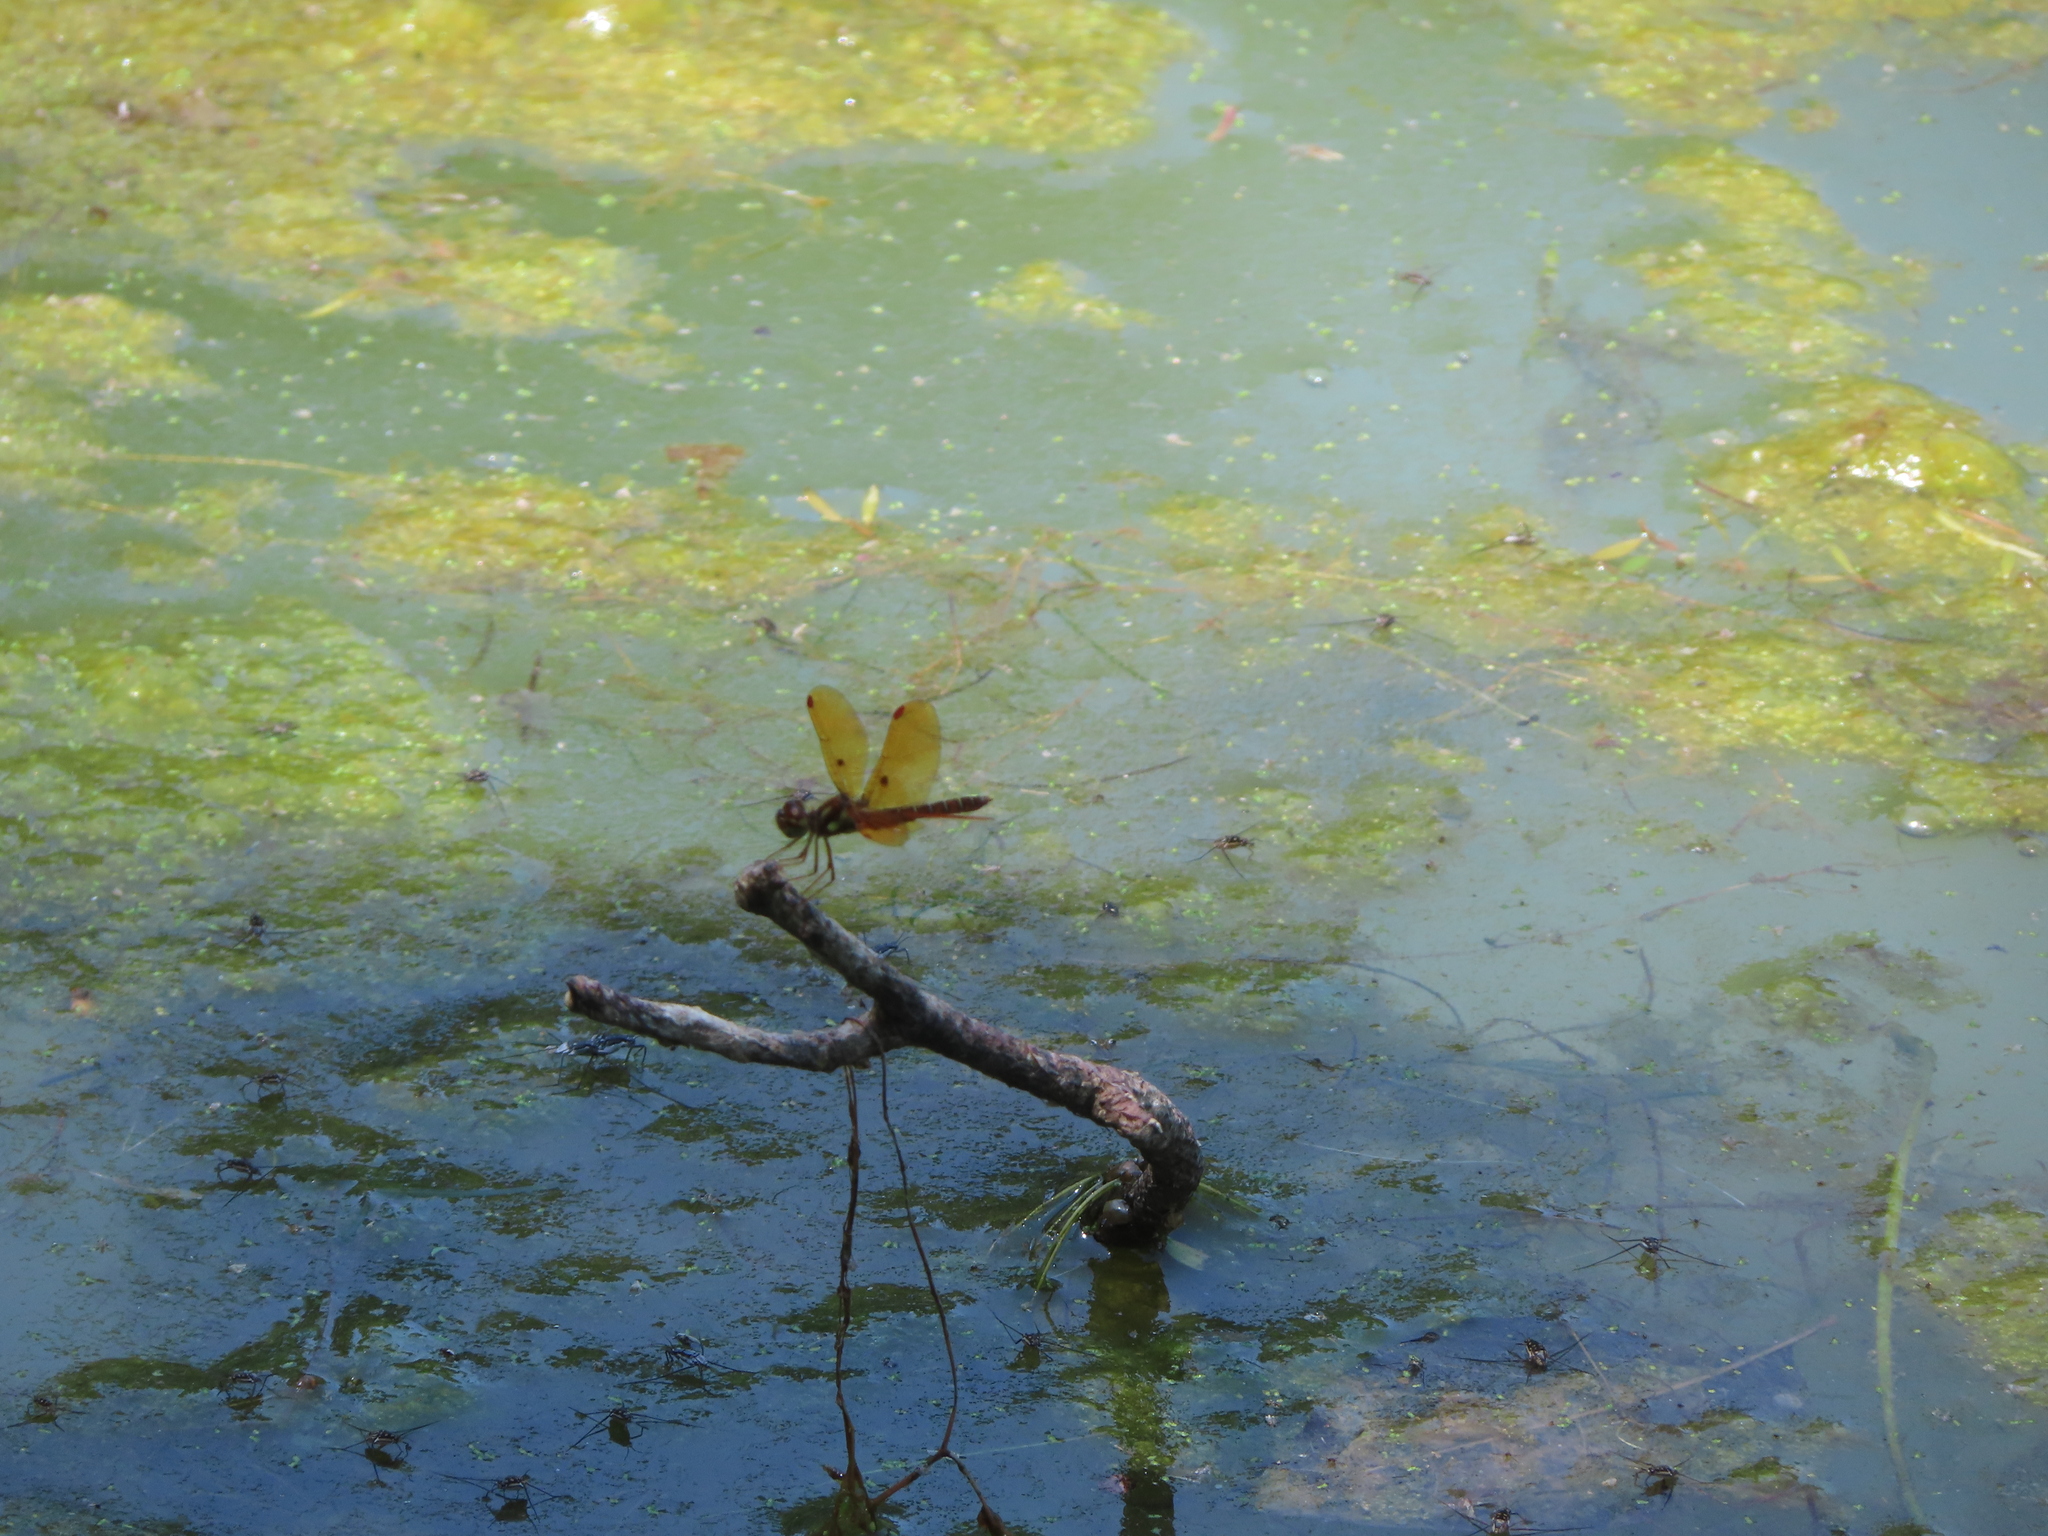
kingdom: Animalia
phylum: Arthropoda
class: Insecta
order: Odonata
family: Libellulidae
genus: Perithemis
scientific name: Perithemis tenera
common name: Eastern amberwing
